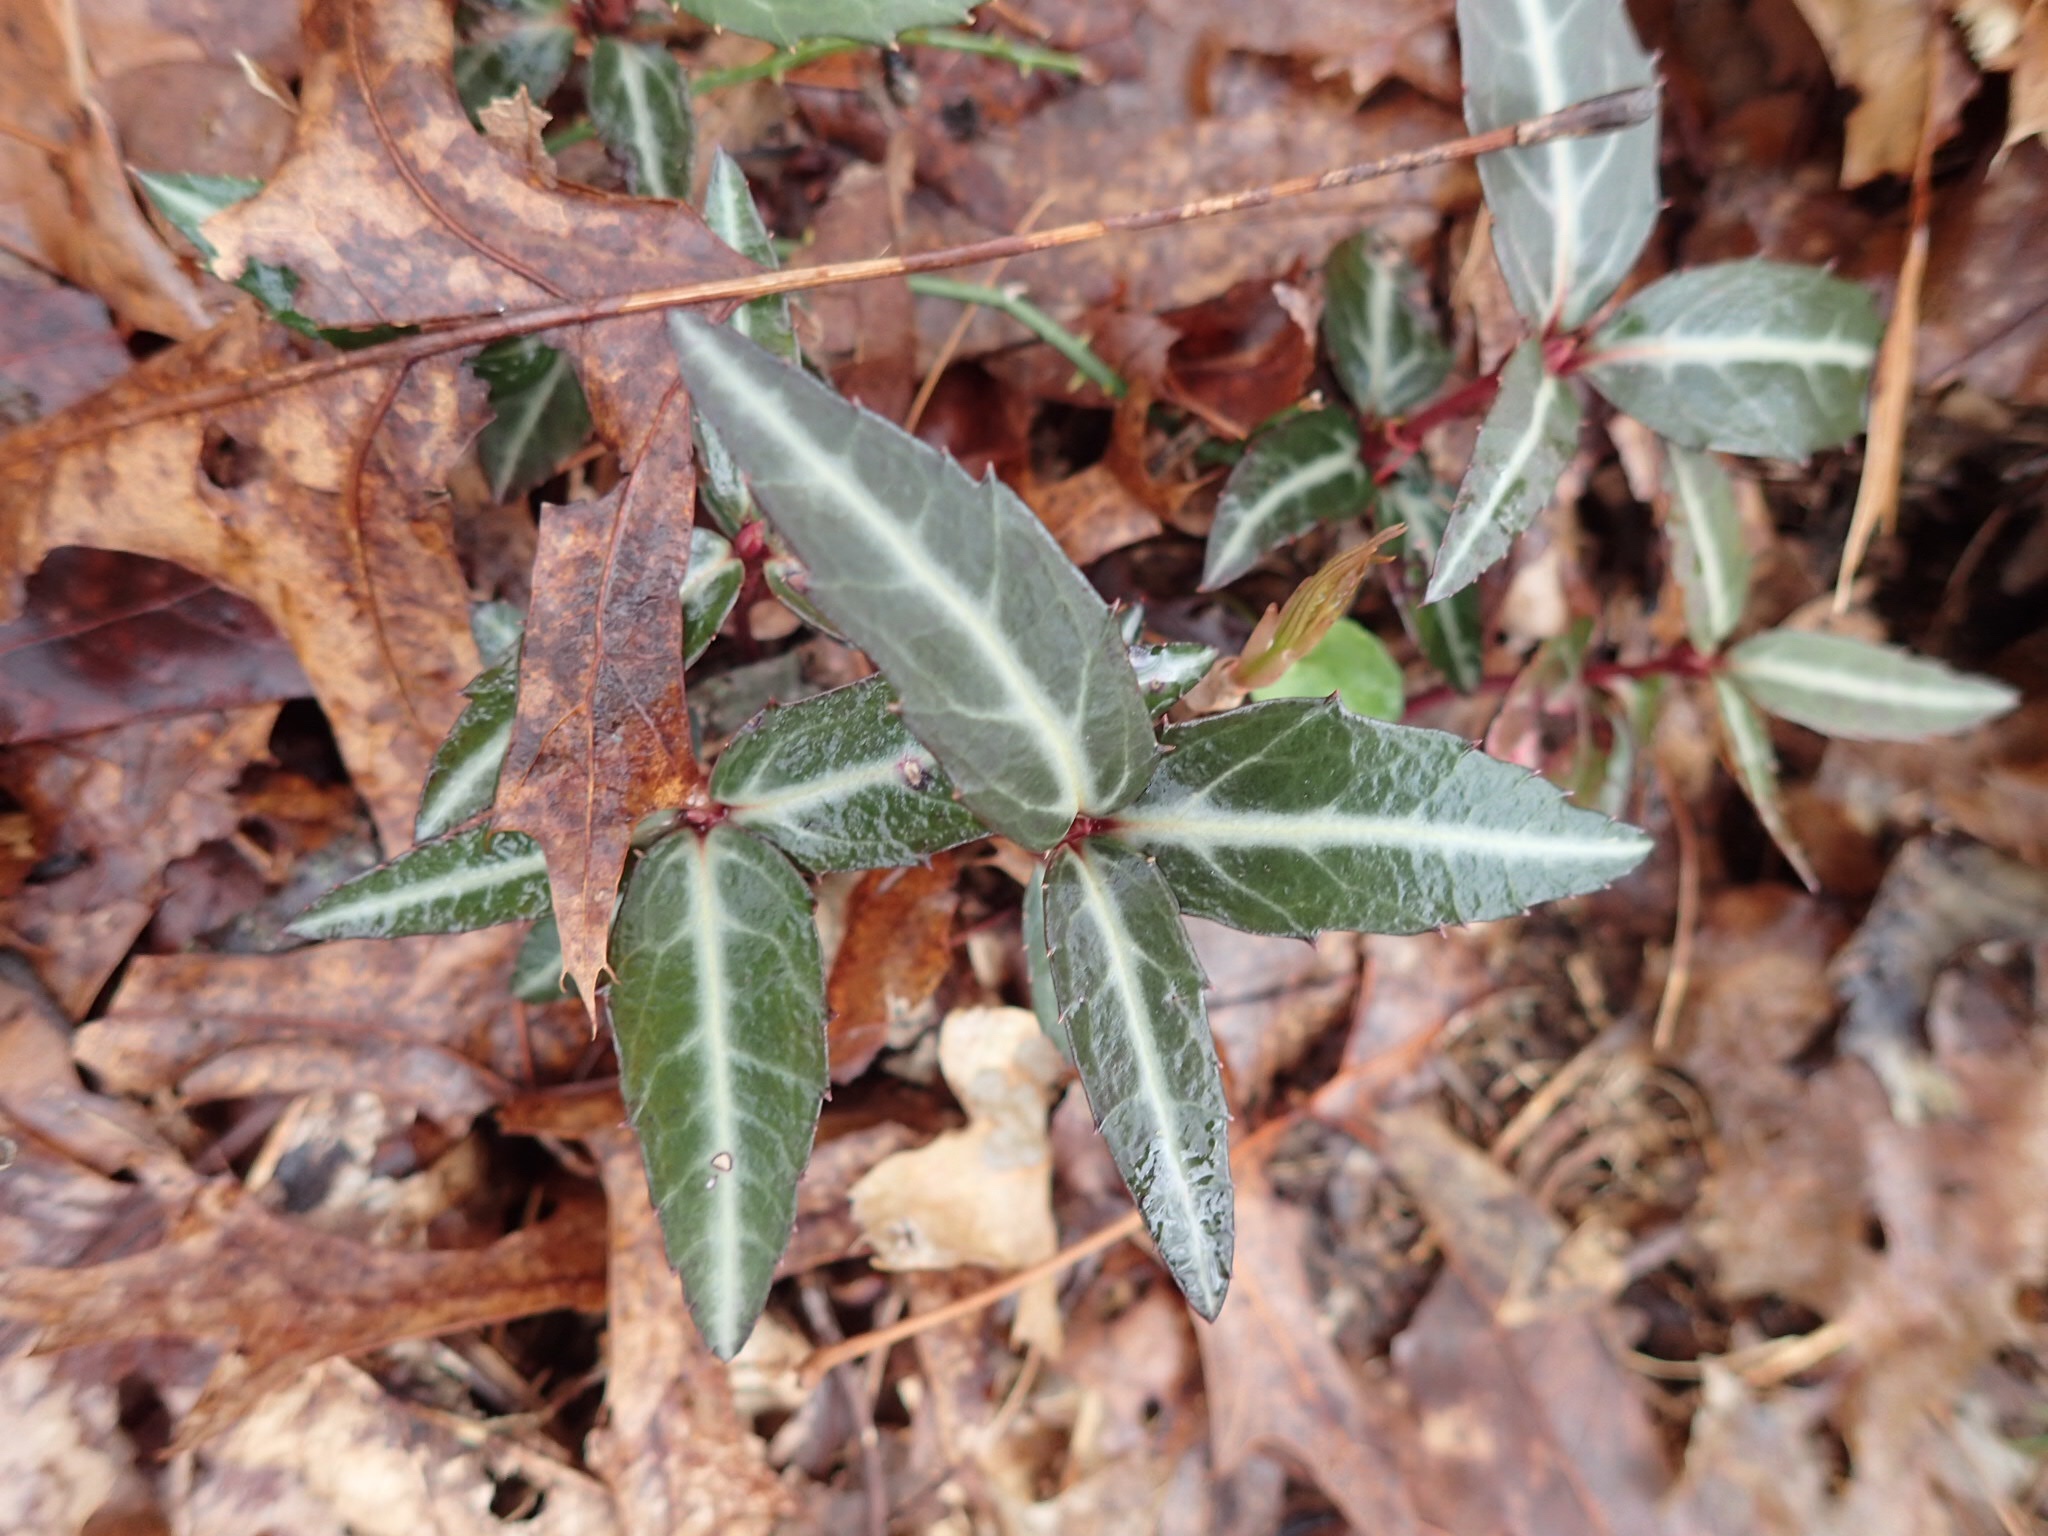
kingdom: Plantae
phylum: Tracheophyta
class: Magnoliopsida
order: Ericales
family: Ericaceae
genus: Chimaphila
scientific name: Chimaphila maculata
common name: Spotted pipsissewa
